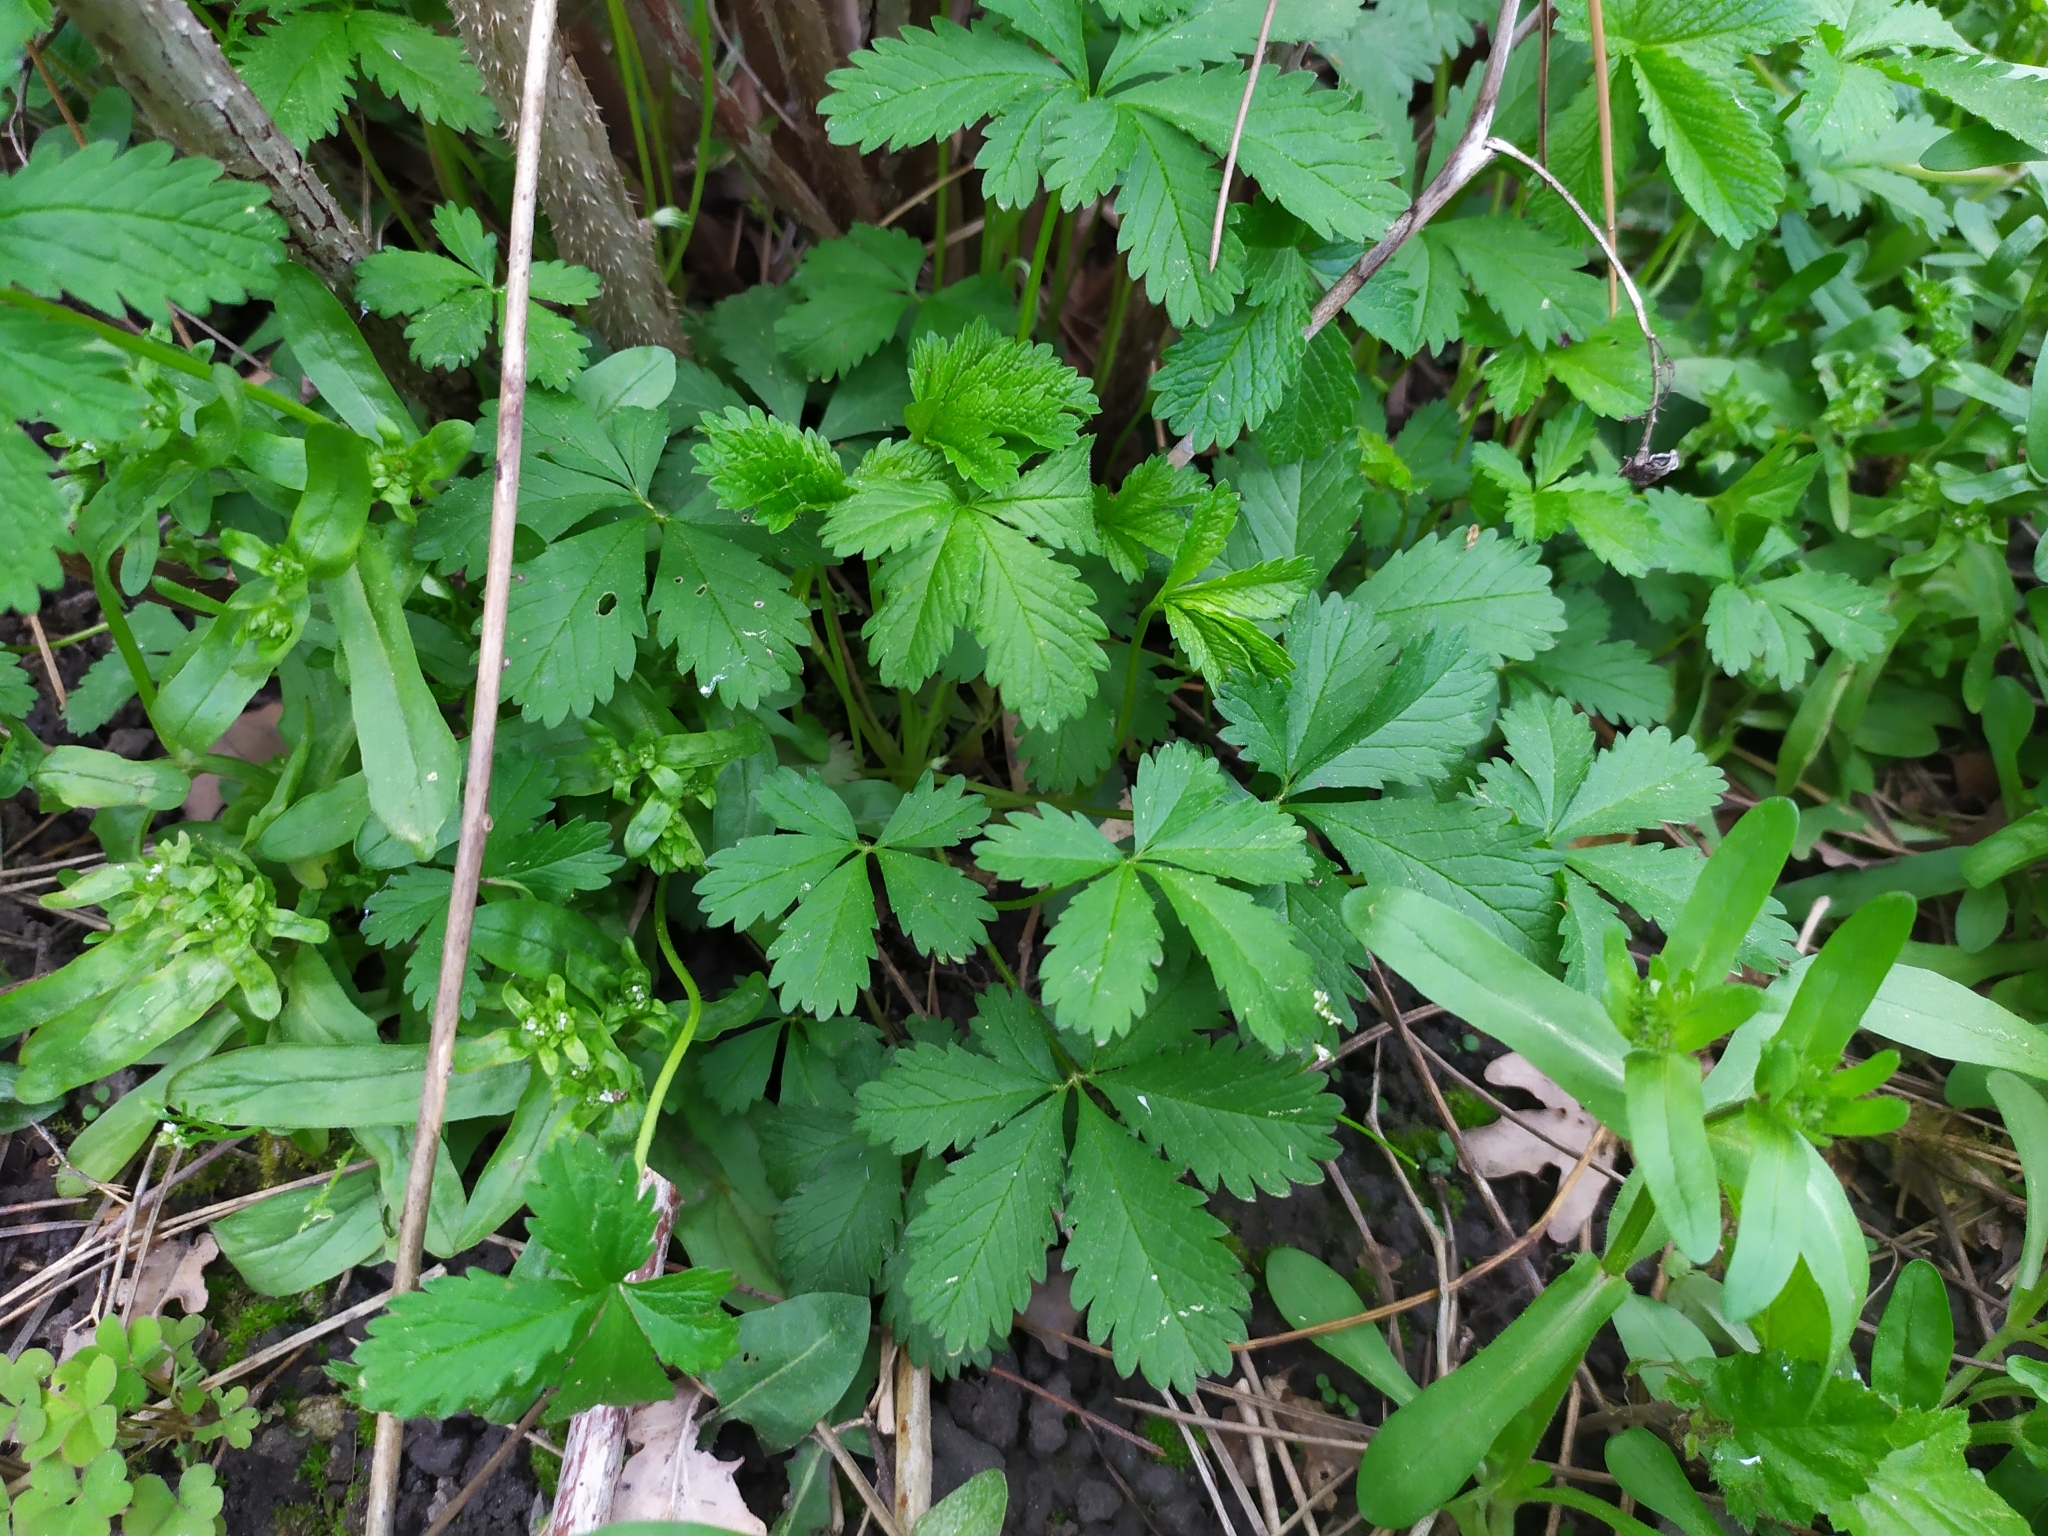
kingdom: Plantae
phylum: Tracheophyta
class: Magnoliopsida
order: Rosales
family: Rosaceae
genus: Potentilla
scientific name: Potentilla reptans
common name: Creeping cinquefoil
